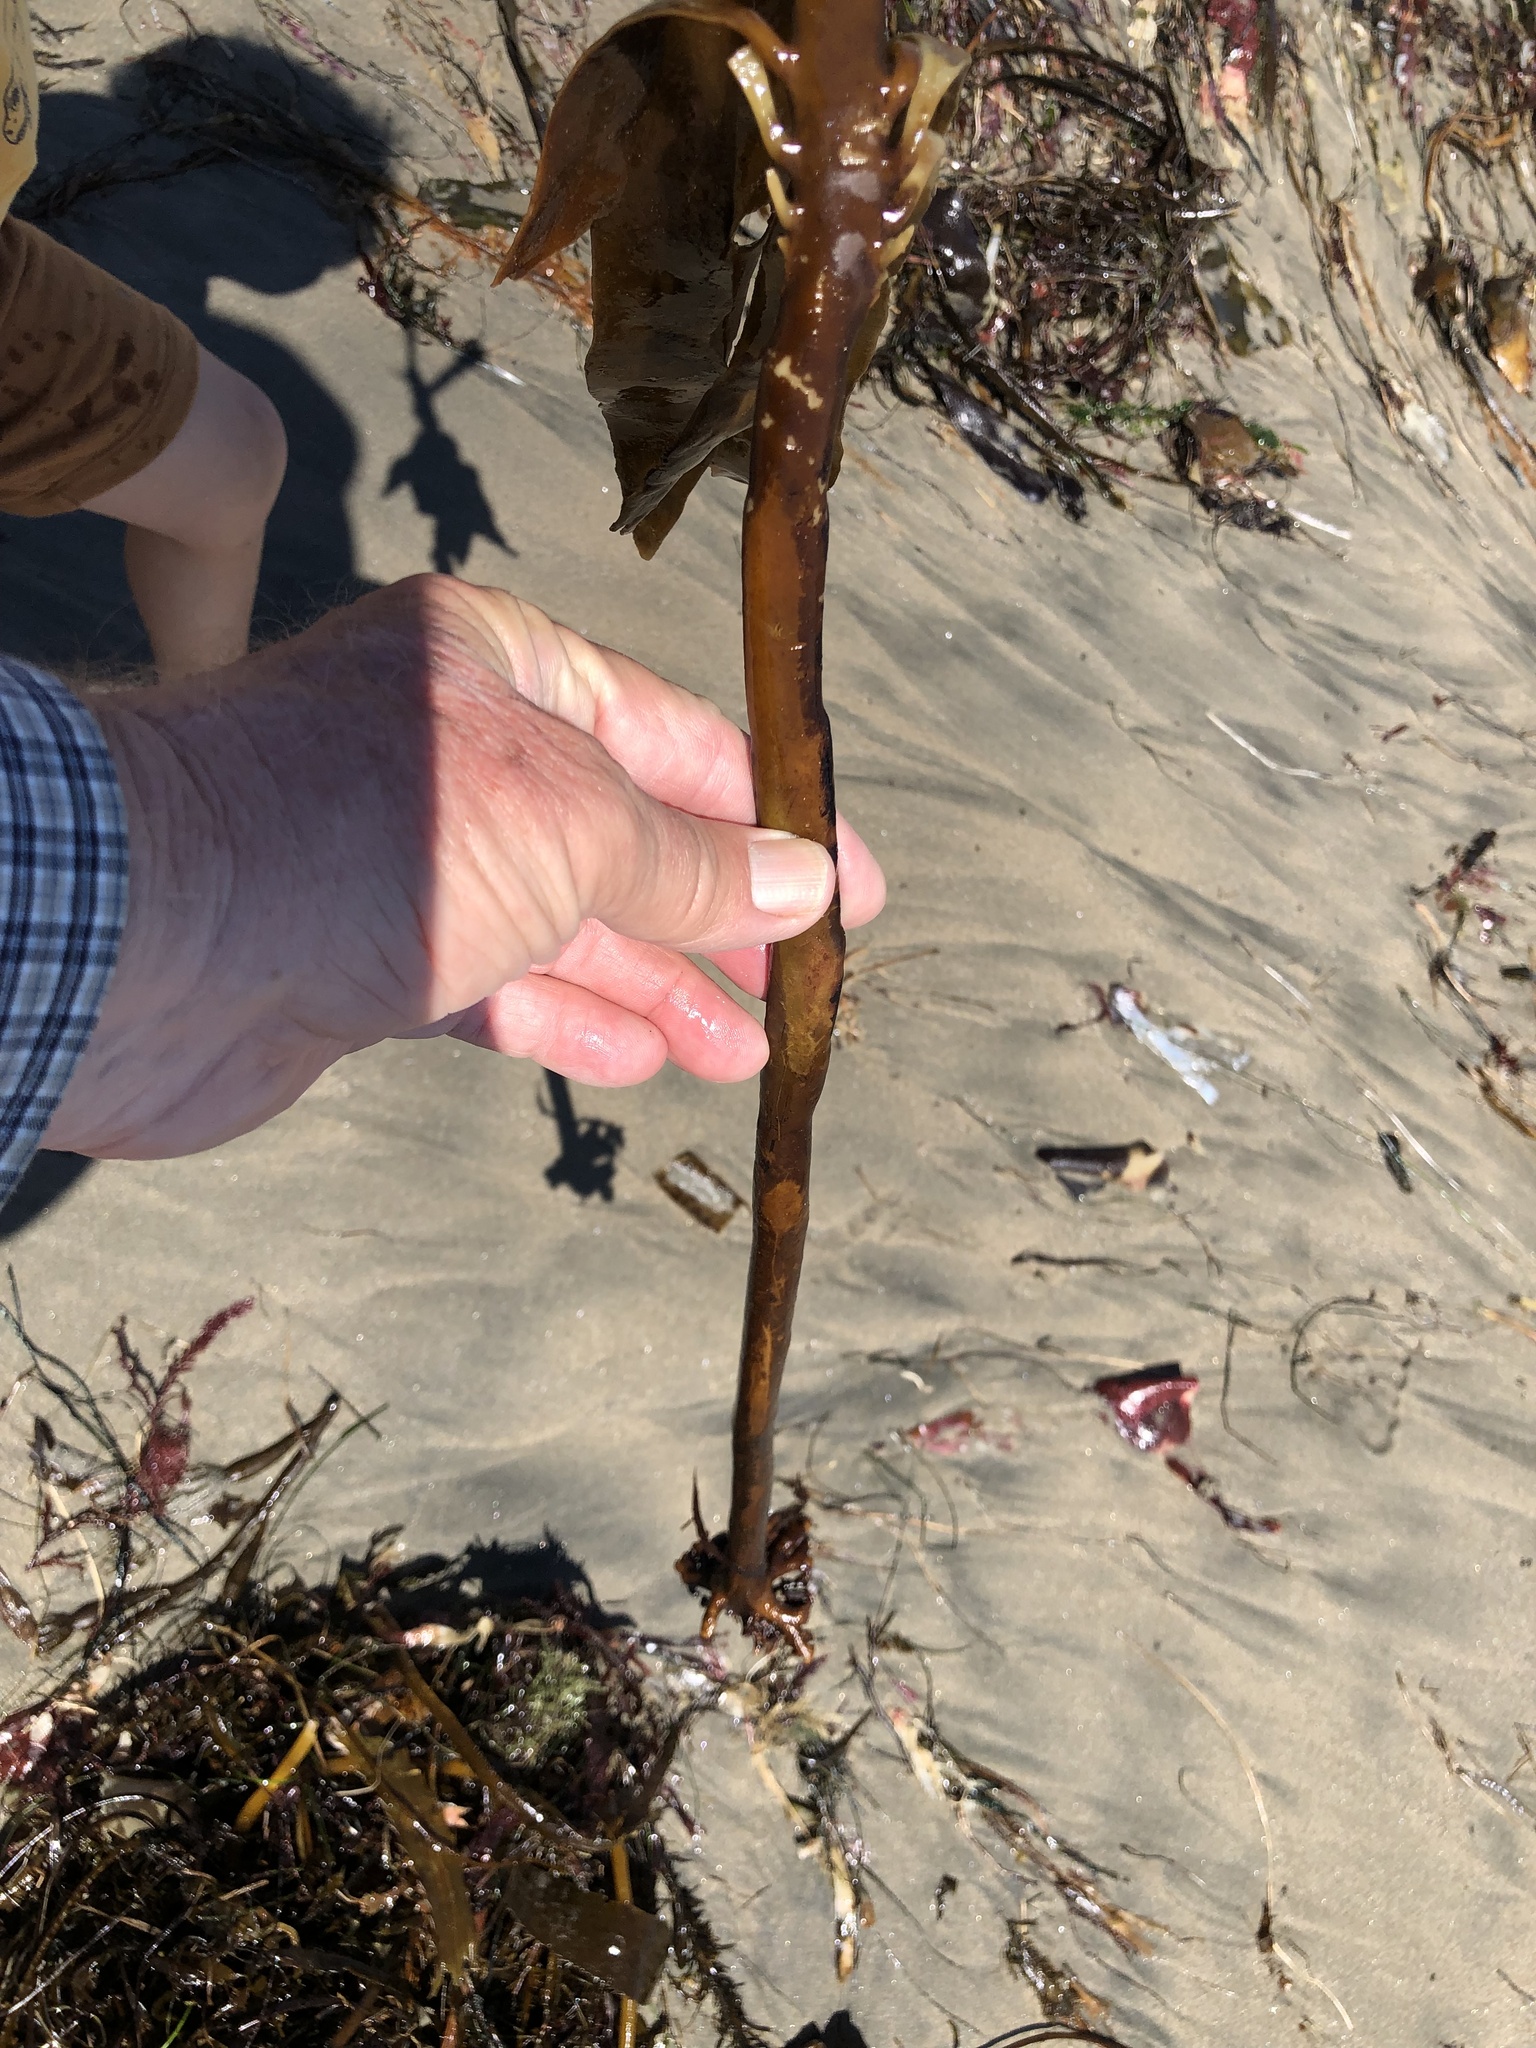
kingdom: Chromista
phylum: Ochrophyta
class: Phaeophyceae
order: Laminariales
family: Alariaceae
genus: Pterygophora
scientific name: Pterygophora californica
